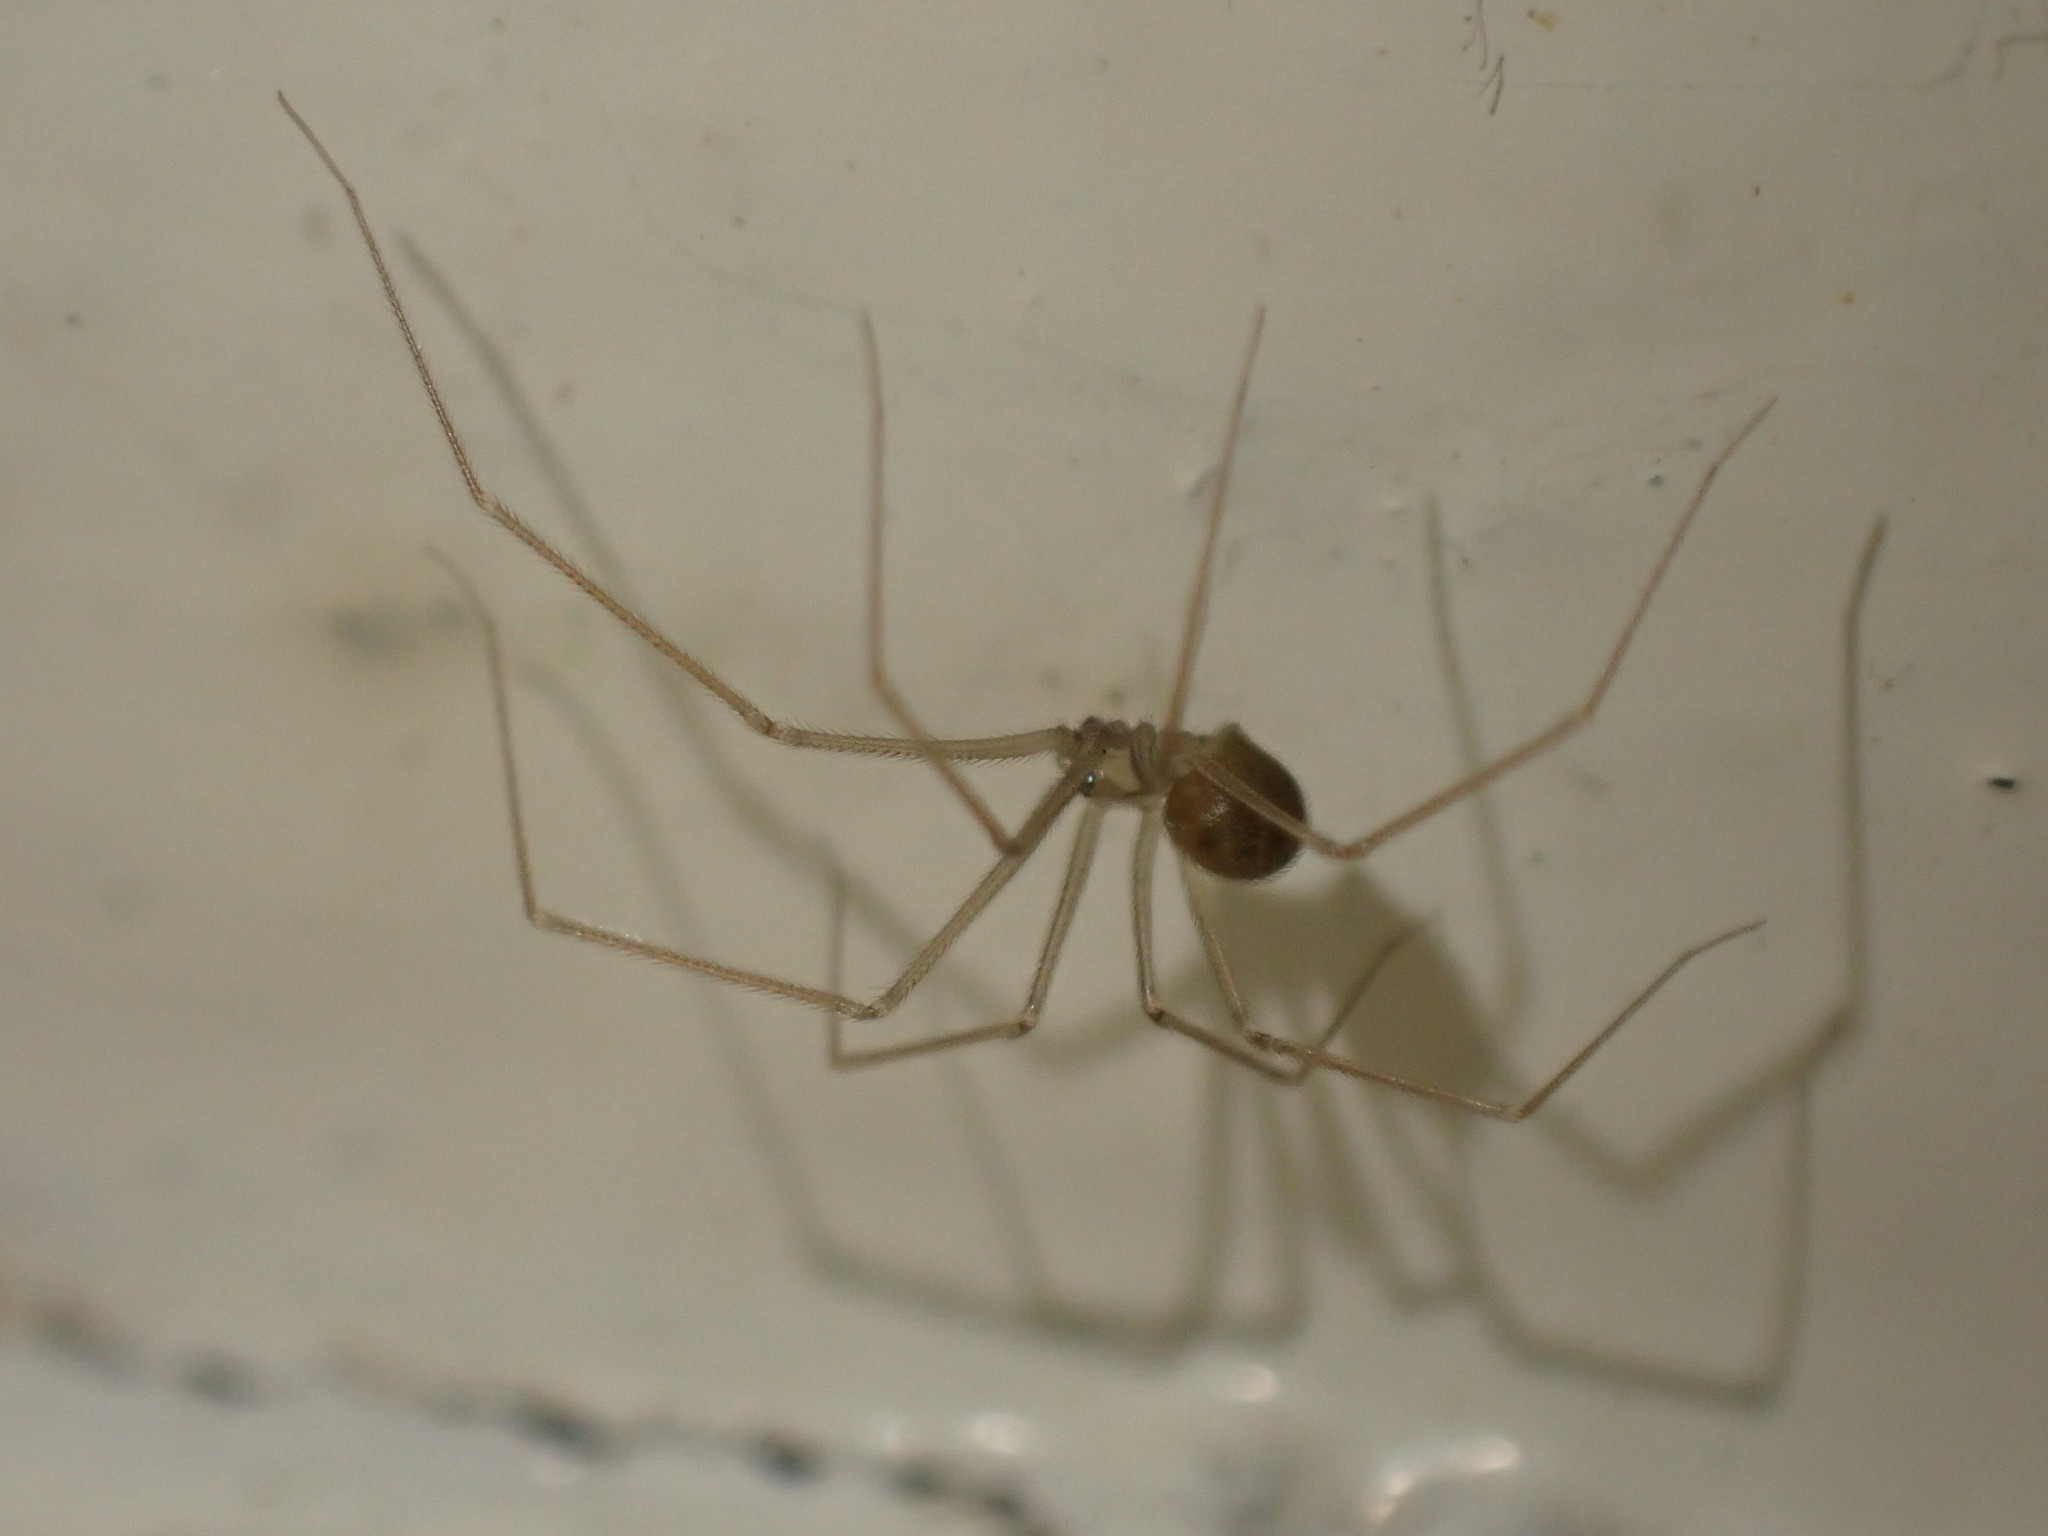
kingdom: Animalia
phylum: Arthropoda
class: Arachnida
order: Araneae
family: Pholcidae
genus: Psilochorus
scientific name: Psilochorus simoni
